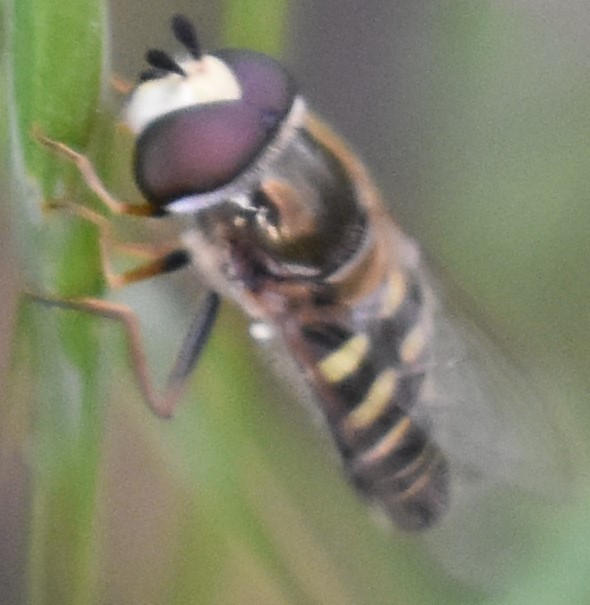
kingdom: Animalia
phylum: Arthropoda
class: Insecta
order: Diptera
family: Syrphidae
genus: Eupeodes
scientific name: Eupeodes volucris
